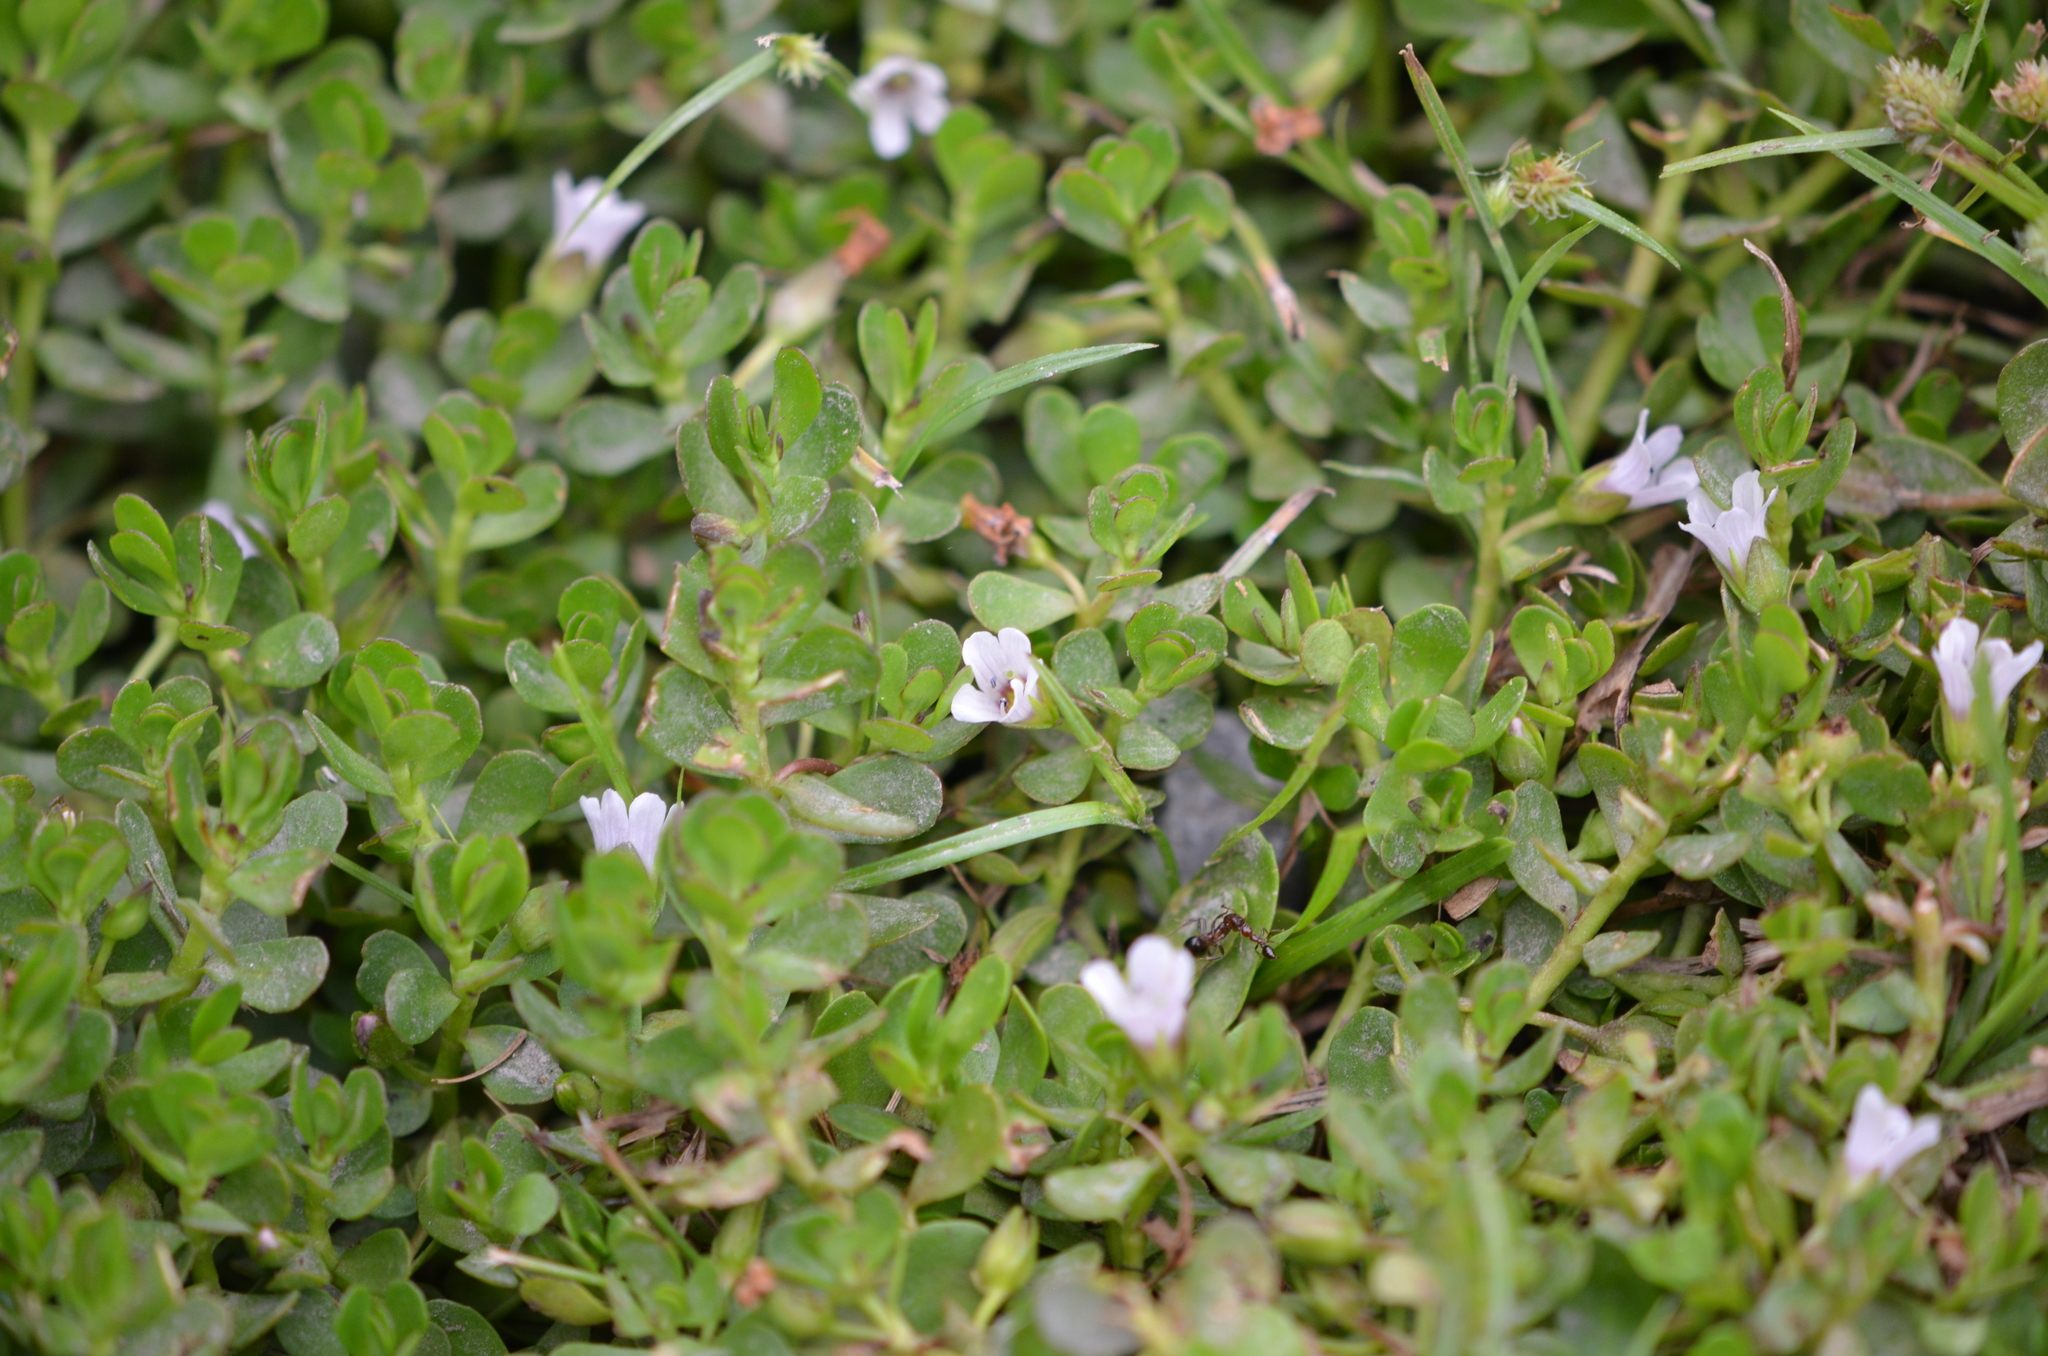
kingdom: Plantae
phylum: Tracheophyta
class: Magnoliopsida
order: Lamiales
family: Plantaginaceae
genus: Bacopa
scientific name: Bacopa rotundifolia
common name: Disc water hyssop
